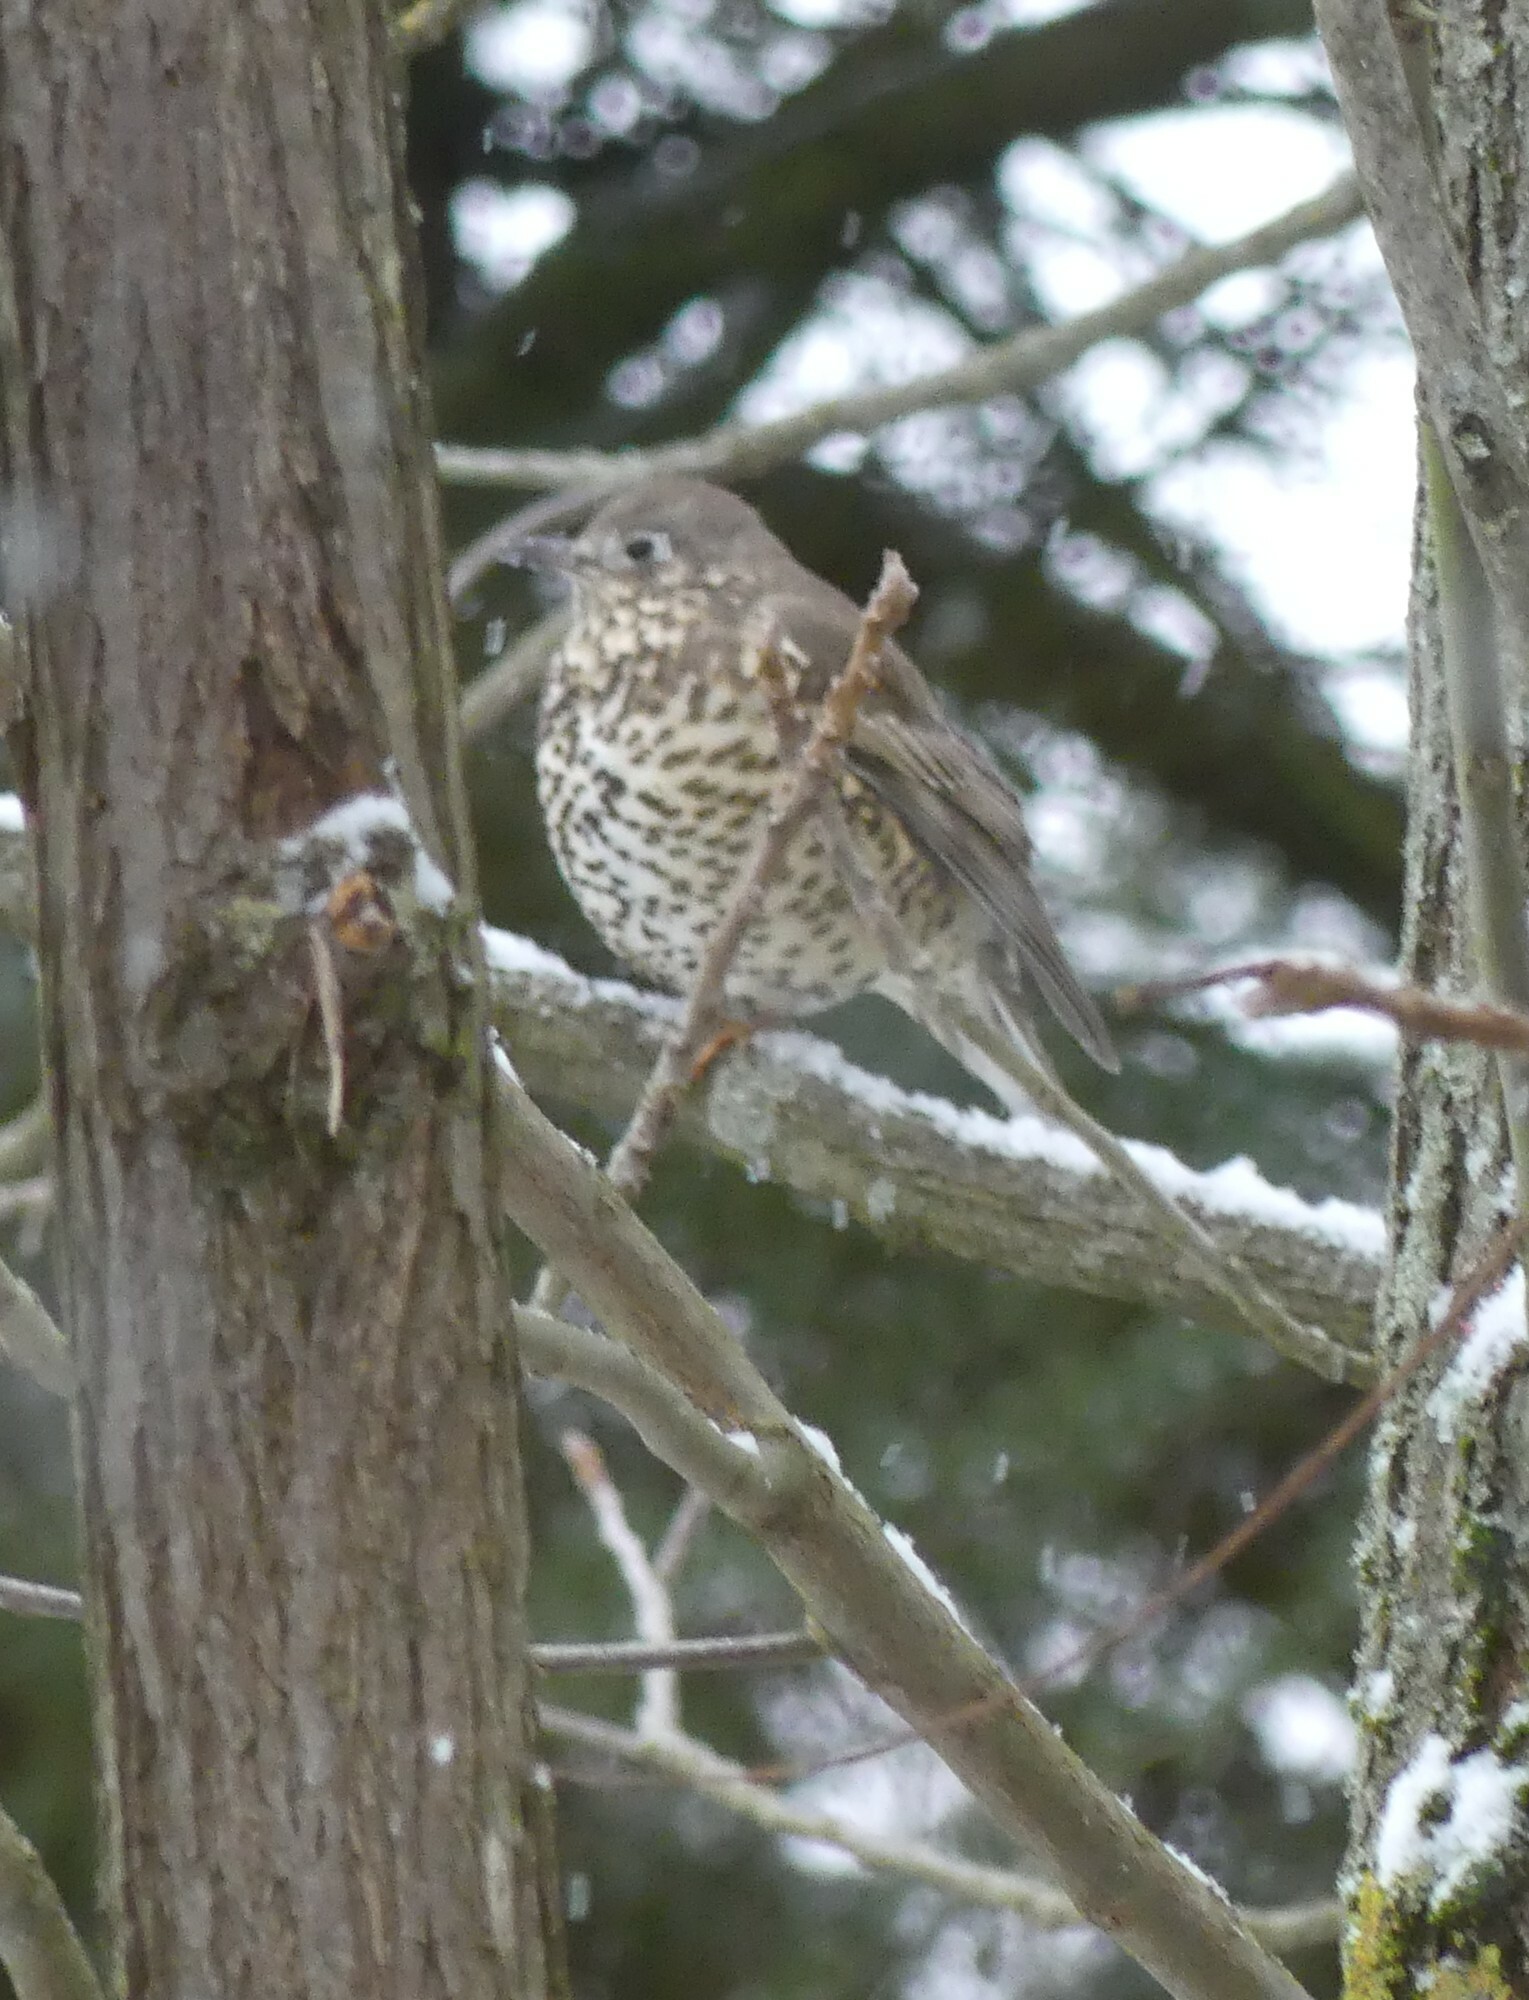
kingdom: Animalia
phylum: Chordata
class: Aves
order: Passeriformes
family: Turdidae
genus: Turdus
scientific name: Turdus viscivorus
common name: Mistle thrush
